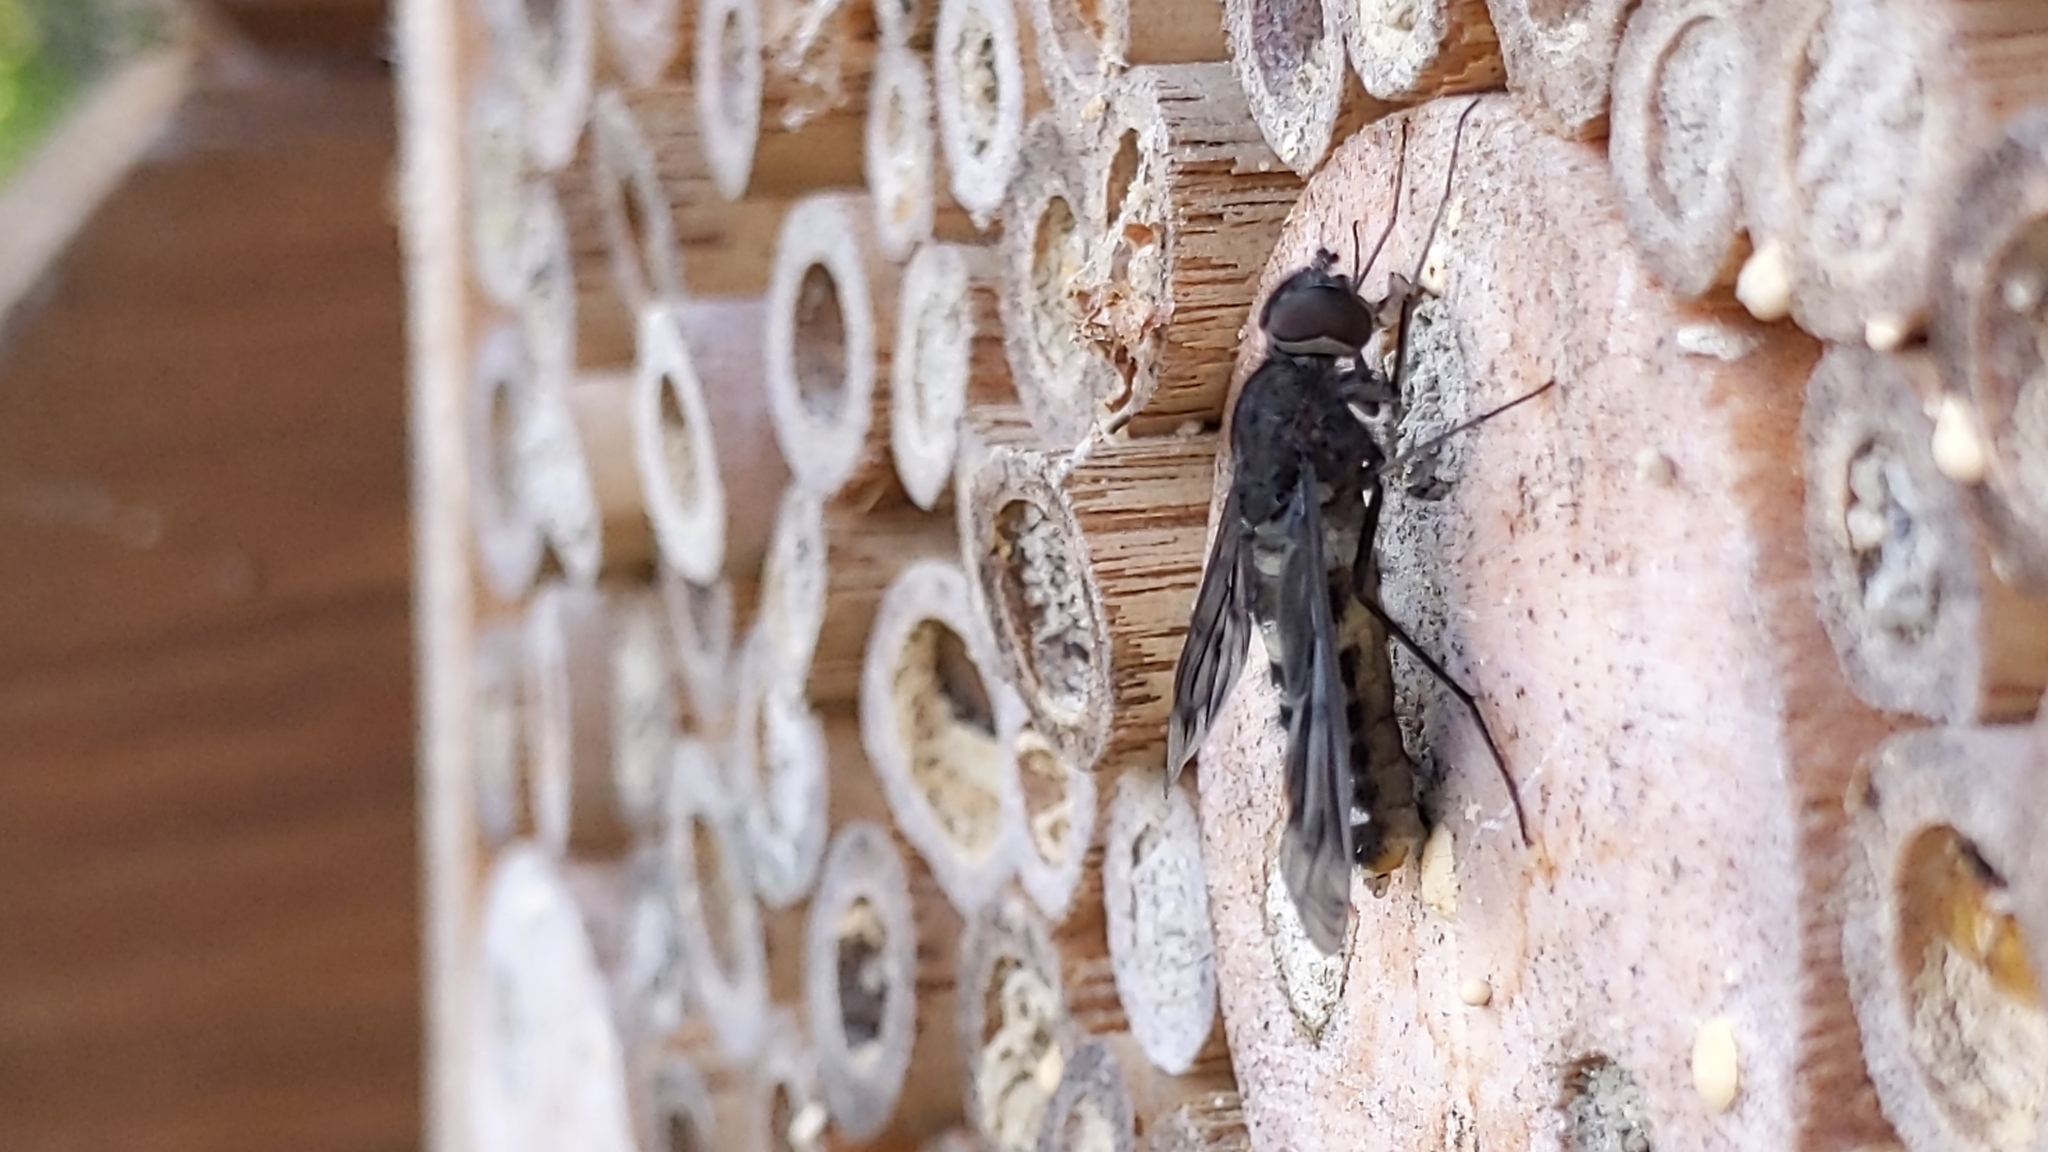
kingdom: Animalia
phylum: Arthropoda
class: Insecta
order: Diptera
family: Bombyliidae
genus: Anthrax
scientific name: Anthrax anthrax
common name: Anthracite bee-fly
